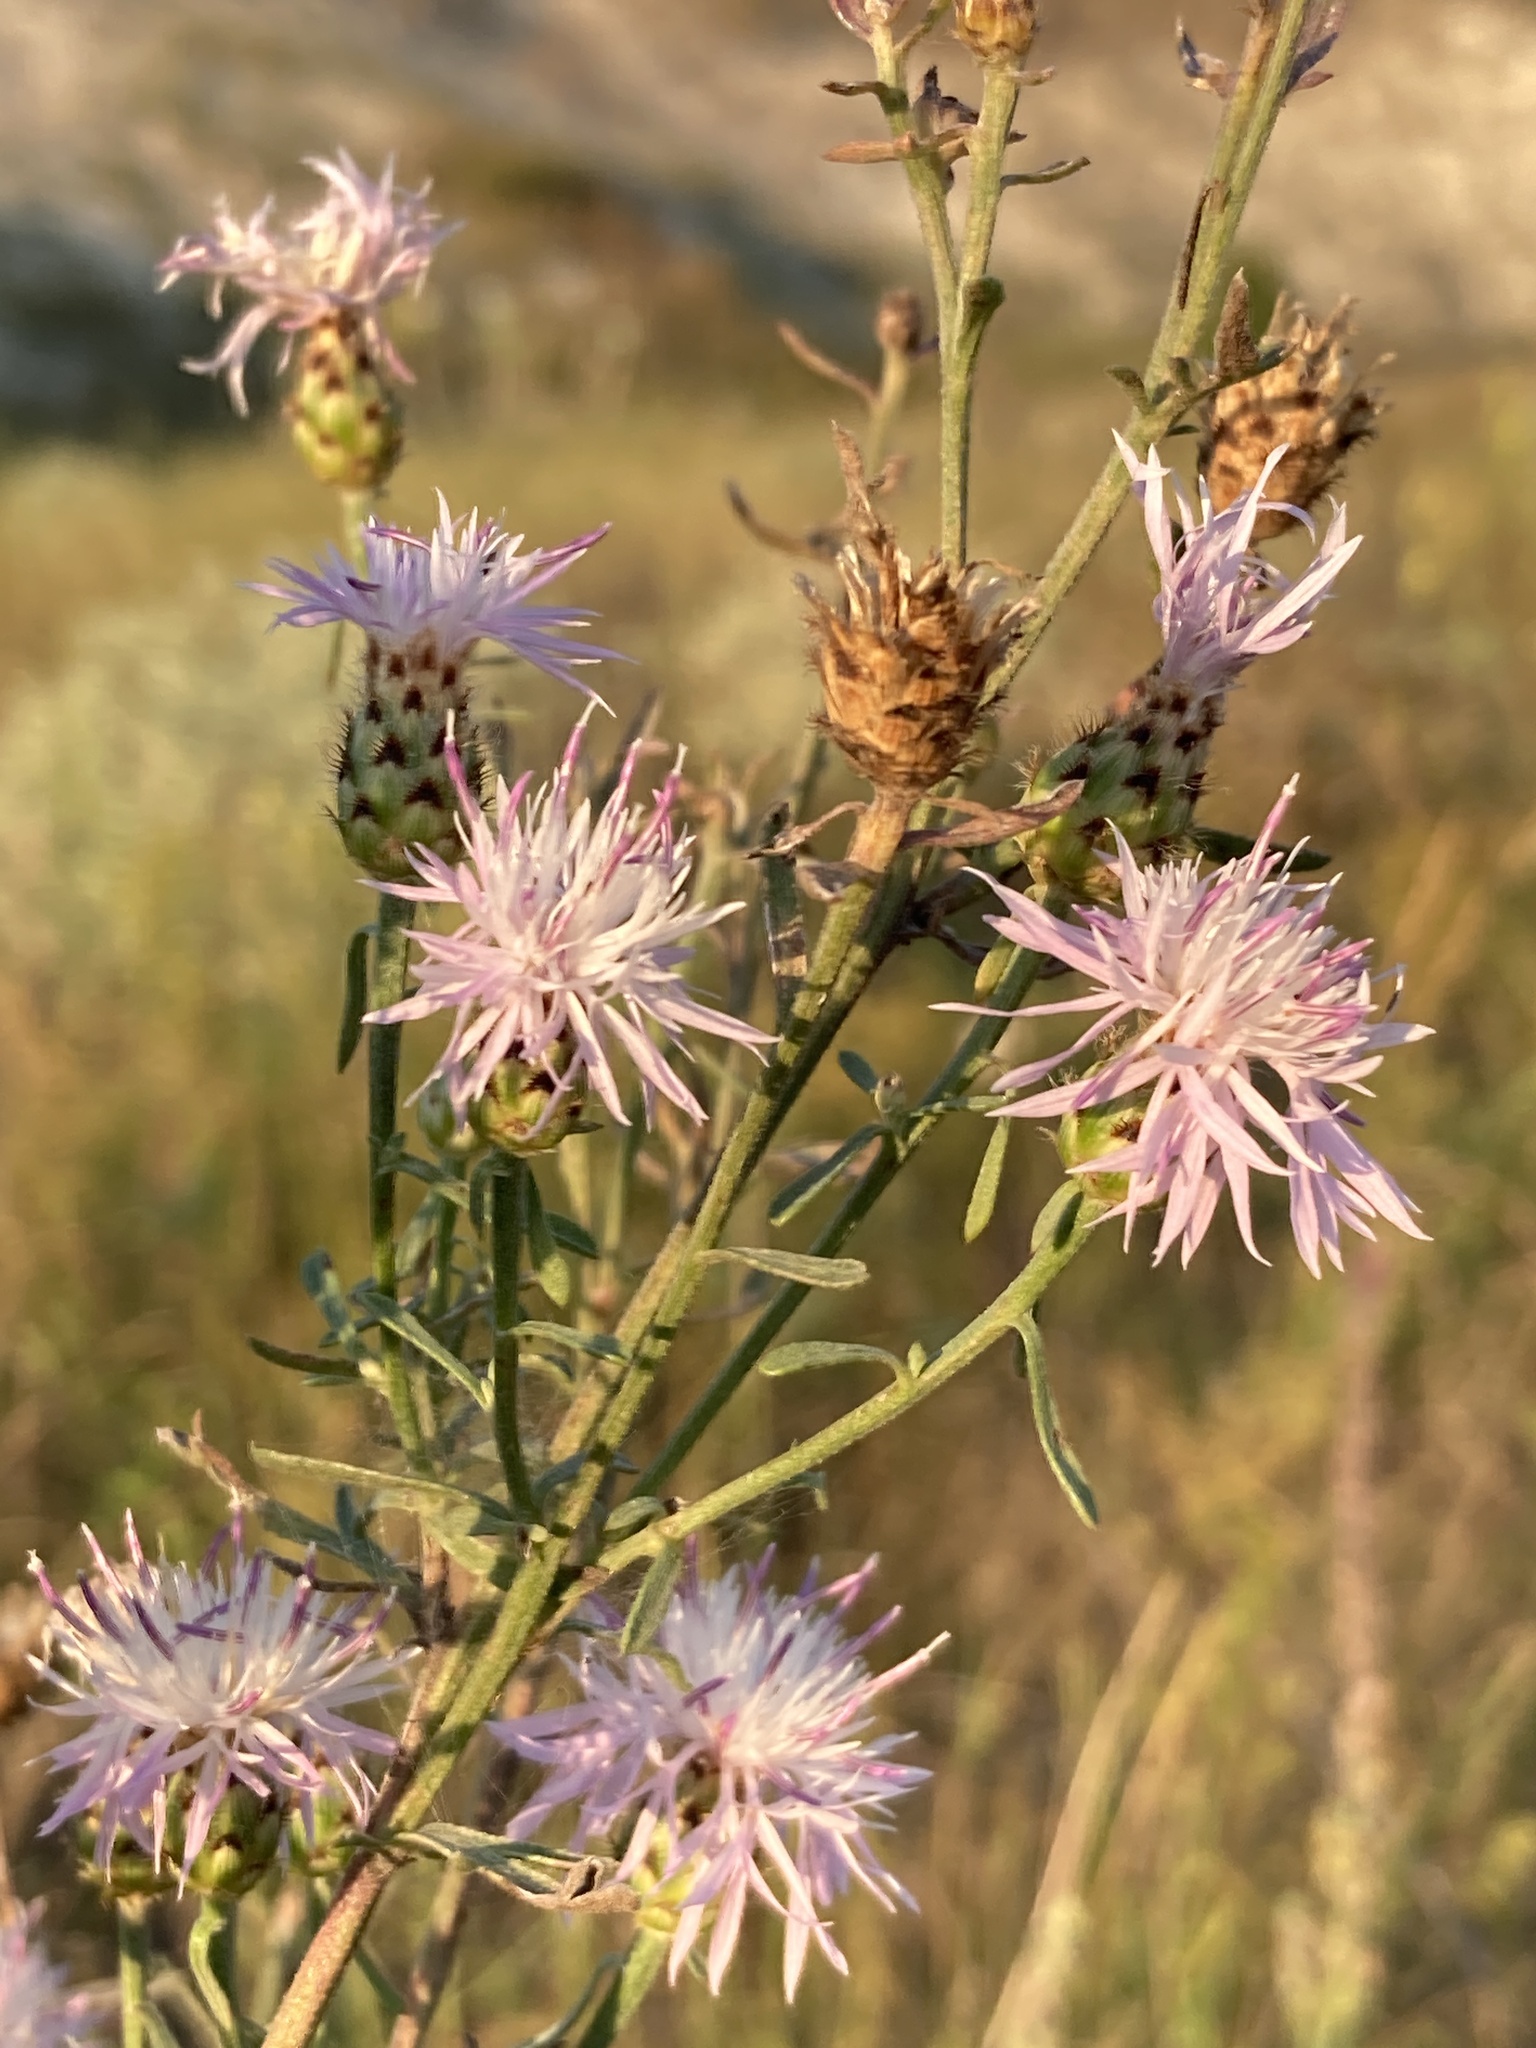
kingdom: Plantae
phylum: Tracheophyta
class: Magnoliopsida
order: Asterales
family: Asteraceae
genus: Centaurea
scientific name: Centaurea stoebe
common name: Spotted knapweed
